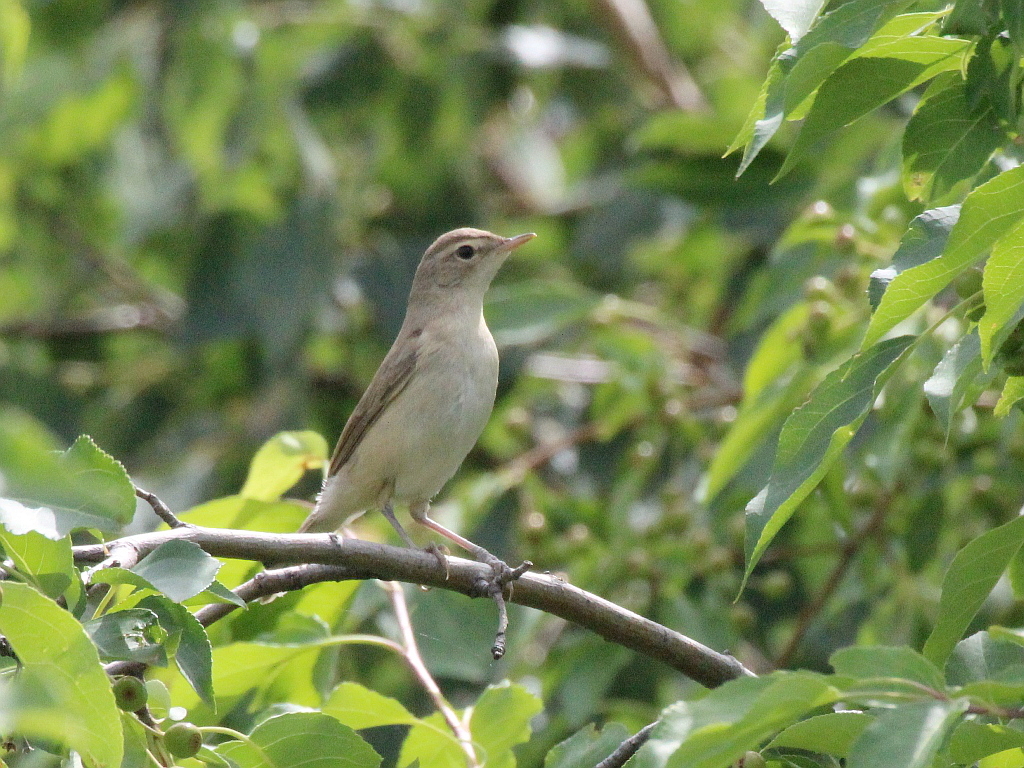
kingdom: Animalia
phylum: Chordata
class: Aves
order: Passeriformes
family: Acrocephalidae
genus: Iduna
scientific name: Iduna caligata
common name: Booted warbler
